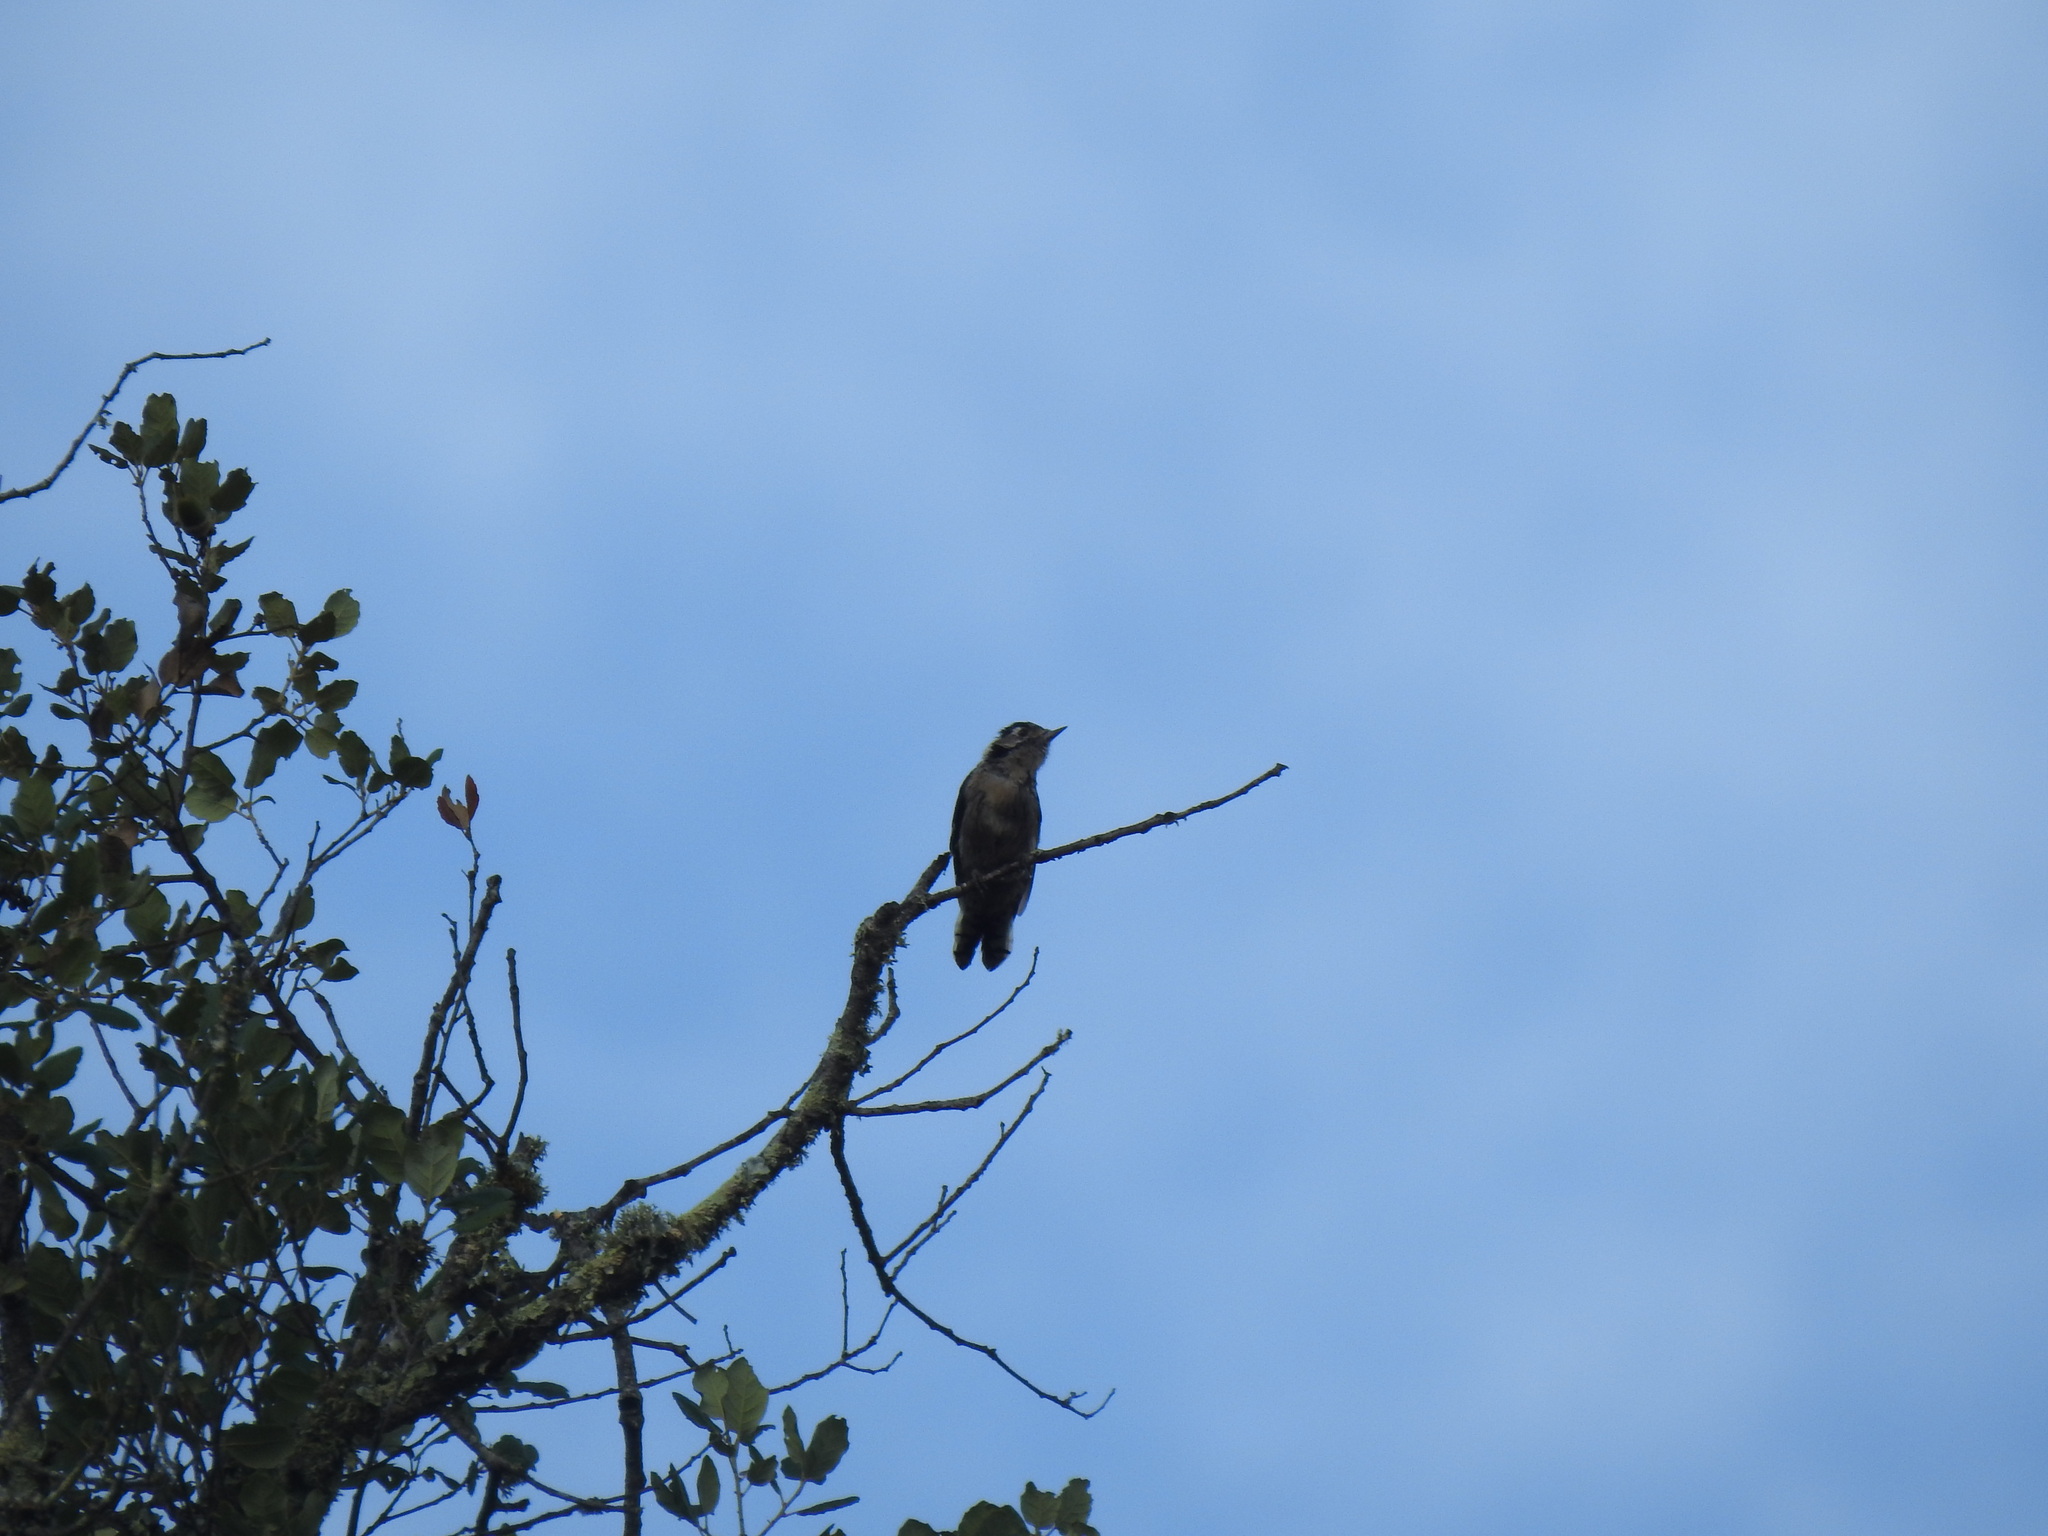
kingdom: Animalia
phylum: Chordata
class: Aves
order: Piciformes
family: Picidae
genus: Dryobates
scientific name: Dryobates minor
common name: Lesser spotted woodpecker
